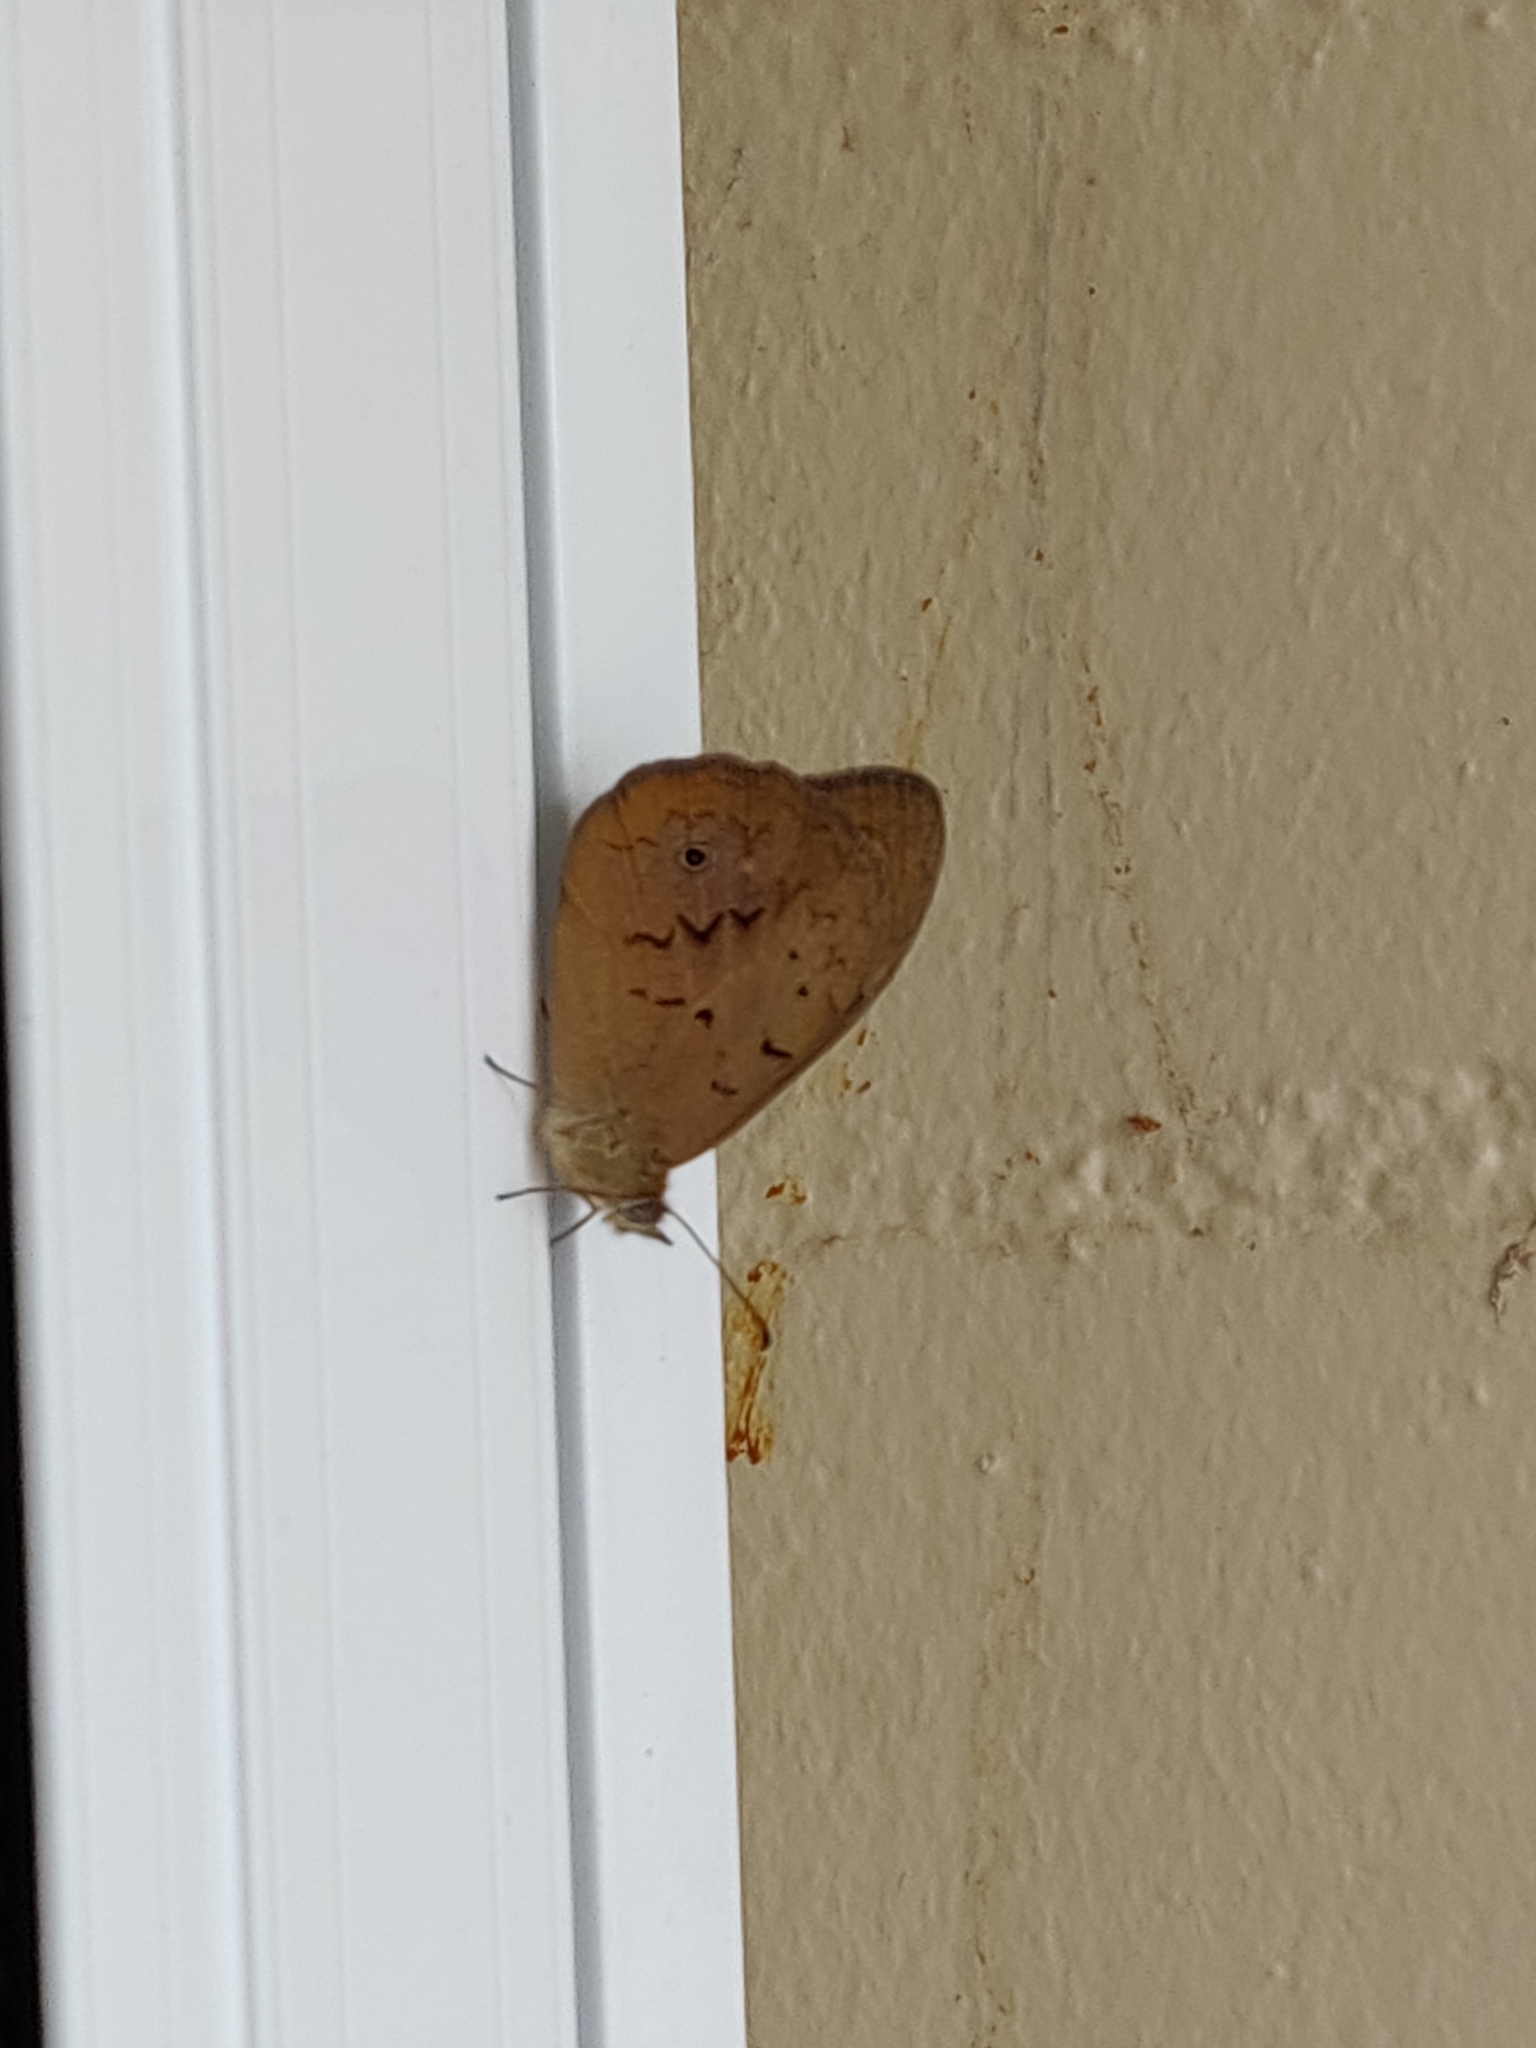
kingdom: Animalia
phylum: Arthropoda
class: Insecta
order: Lepidoptera
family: Nymphalidae
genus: Heteronympha
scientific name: Heteronympha merope
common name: Common brown
